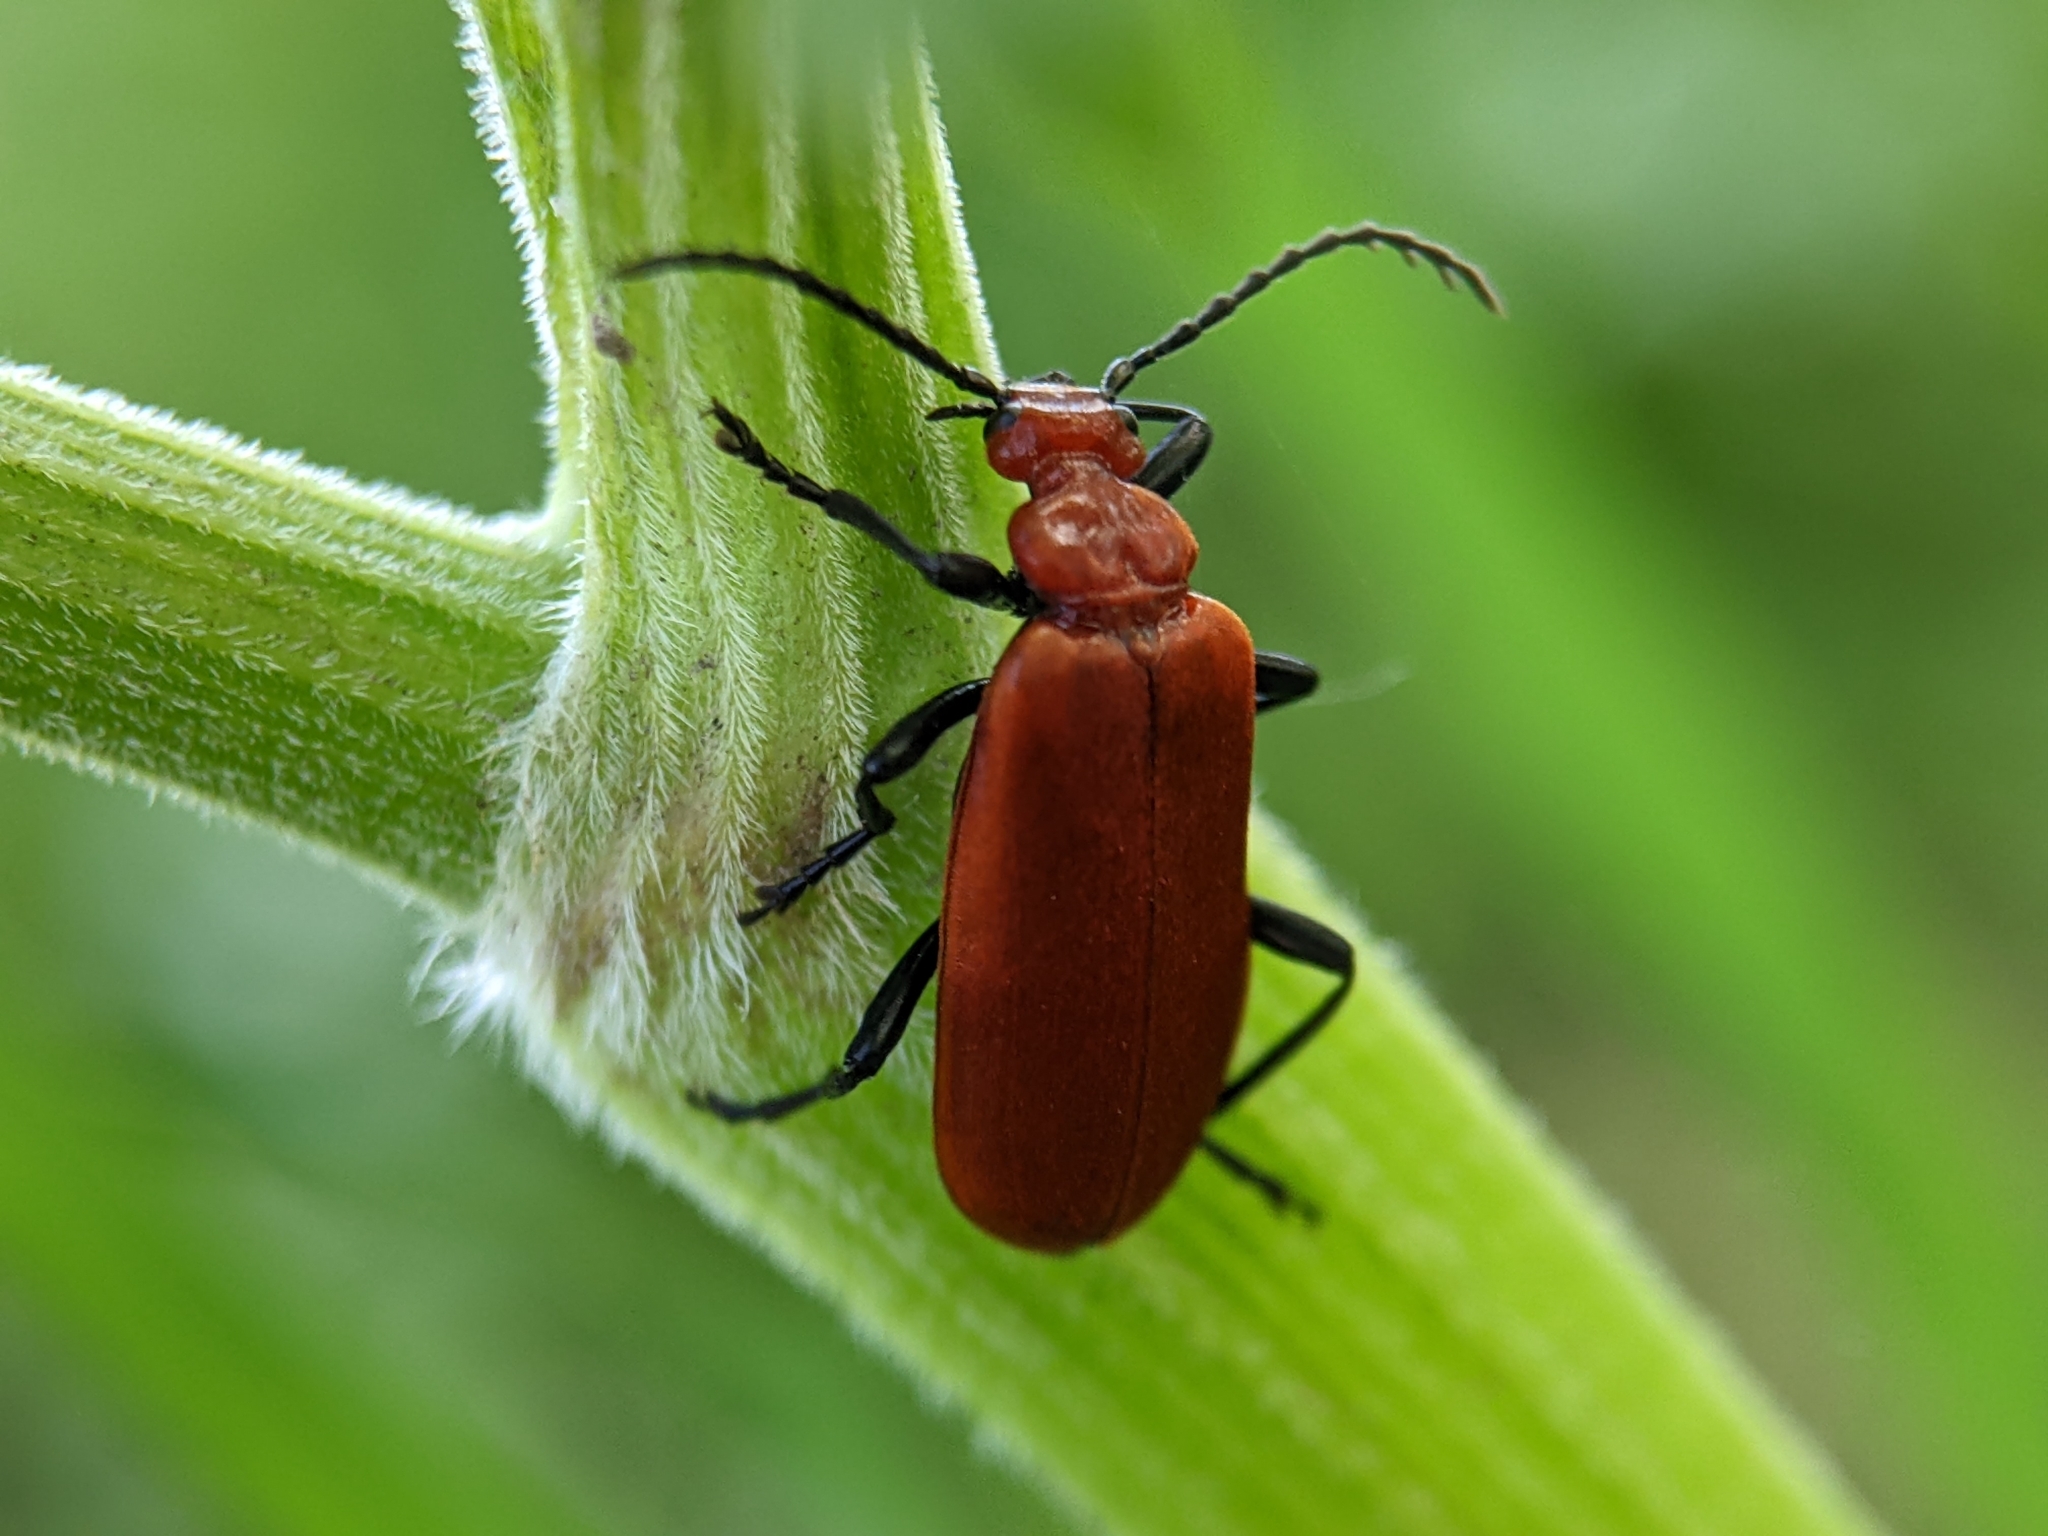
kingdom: Animalia
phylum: Arthropoda
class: Insecta
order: Coleoptera
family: Pyrochroidae
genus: Pyrochroa
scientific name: Pyrochroa serraticornis
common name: Red-headed cardinal beetle
